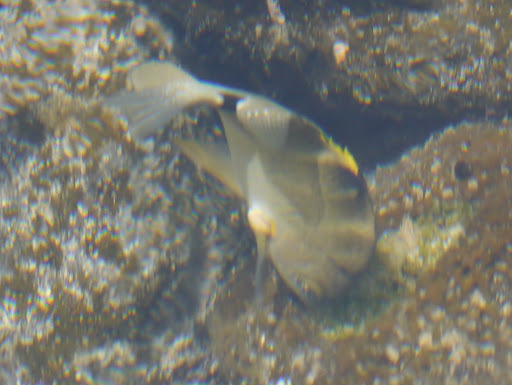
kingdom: Animalia
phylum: Chordata
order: Perciformes
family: Pomacentridae
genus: Abudefduf
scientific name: Abudefduf sordidus
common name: Blackspot sergeant
